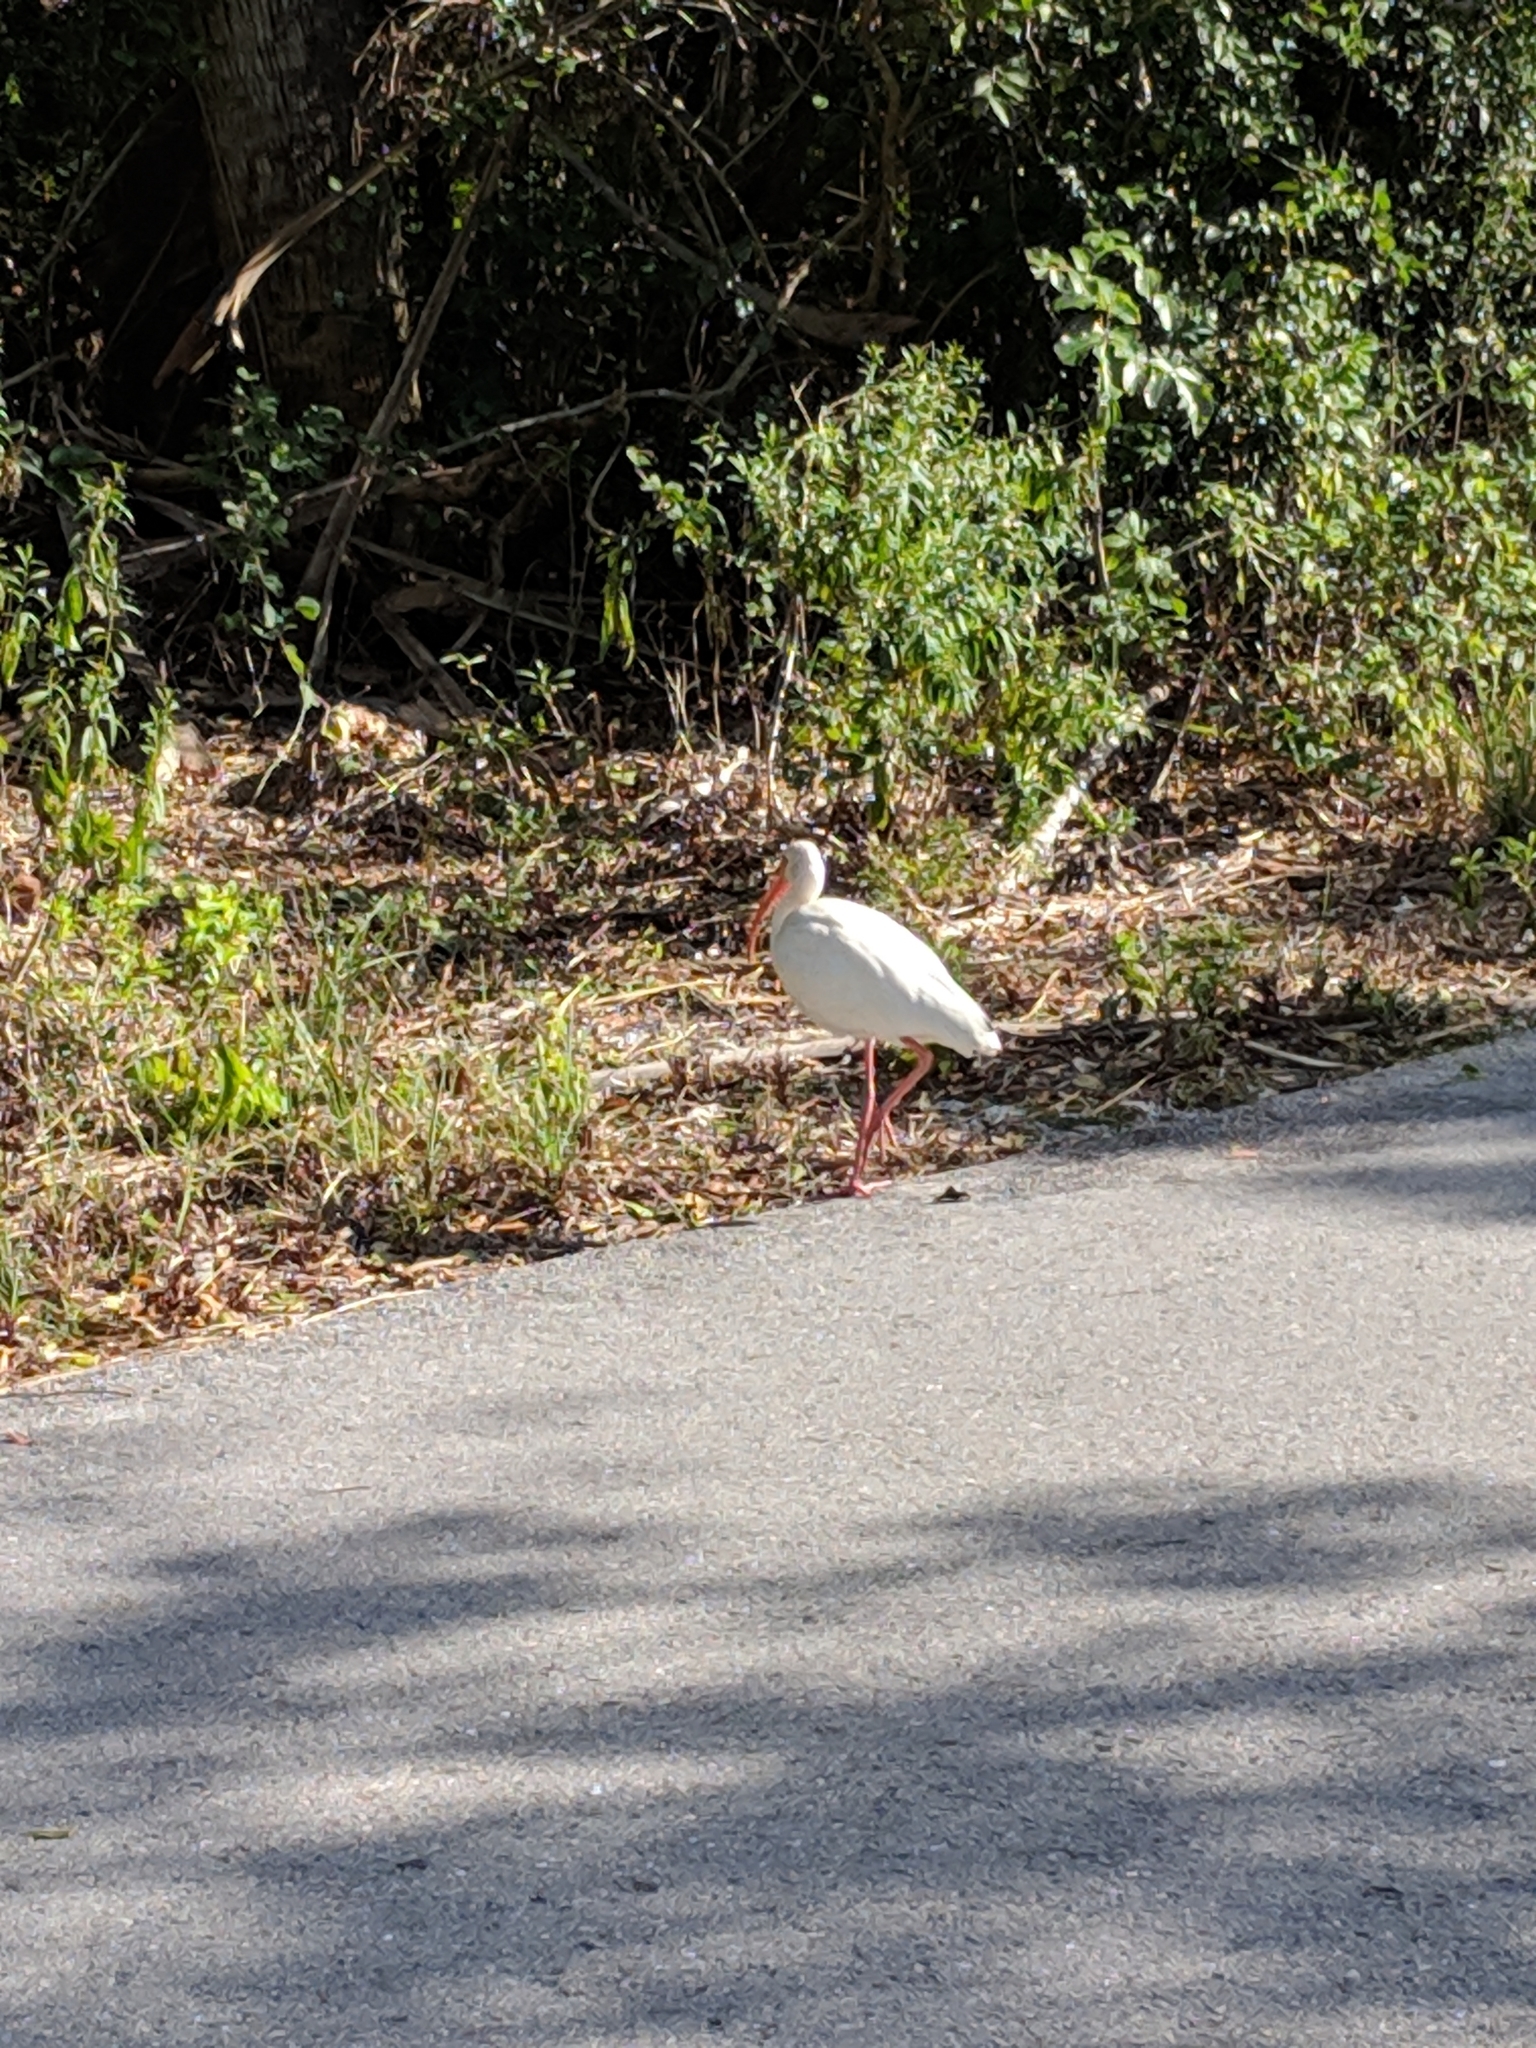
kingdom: Animalia
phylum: Chordata
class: Aves
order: Pelecaniformes
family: Threskiornithidae
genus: Eudocimus
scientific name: Eudocimus albus
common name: White ibis
